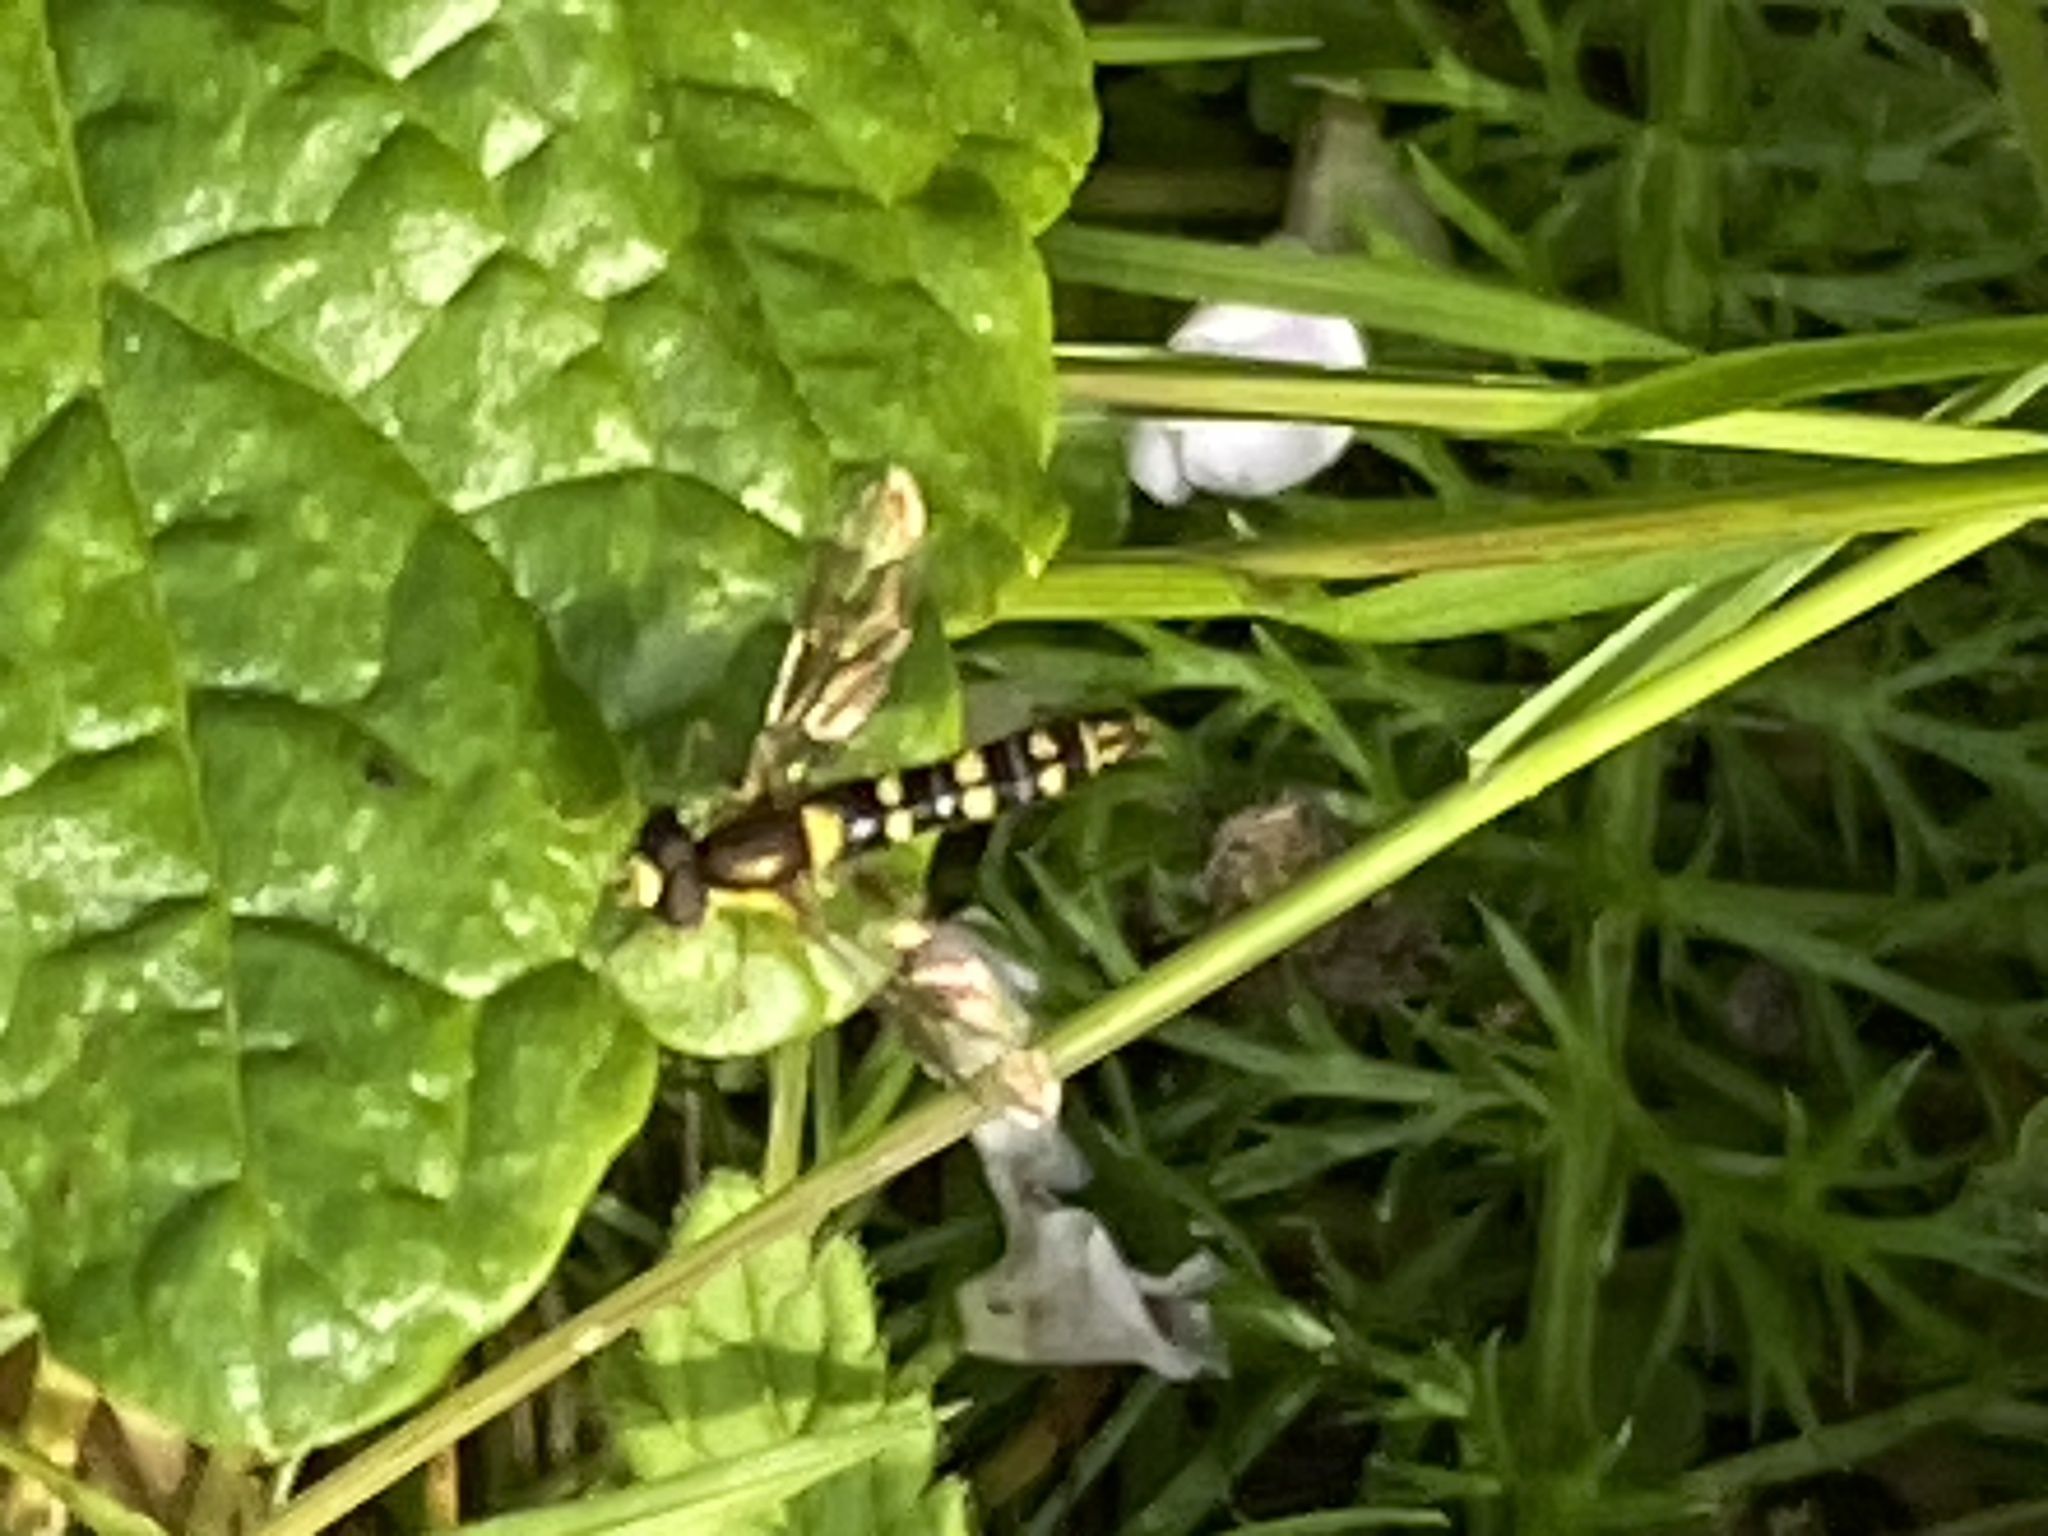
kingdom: Animalia
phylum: Arthropoda
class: Insecta
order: Diptera
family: Syrphidae
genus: Sphaerophoria
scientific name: Sphaerophoria scripta
